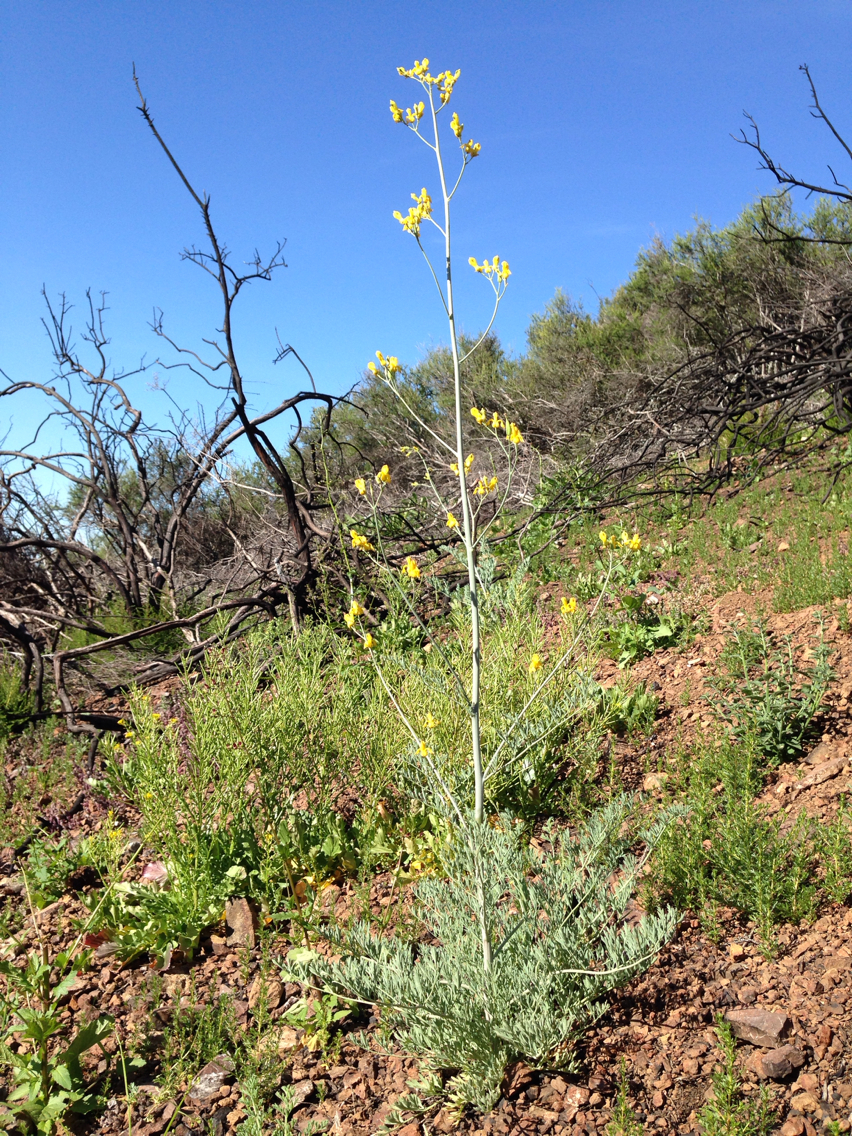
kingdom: Plantae
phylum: Tracheophyta
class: Magnoliopsida
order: Ranunculales
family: Papaveraceae
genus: Ehrendorferia
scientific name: Ehrendorferia chrysantha
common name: Golden eardrops
